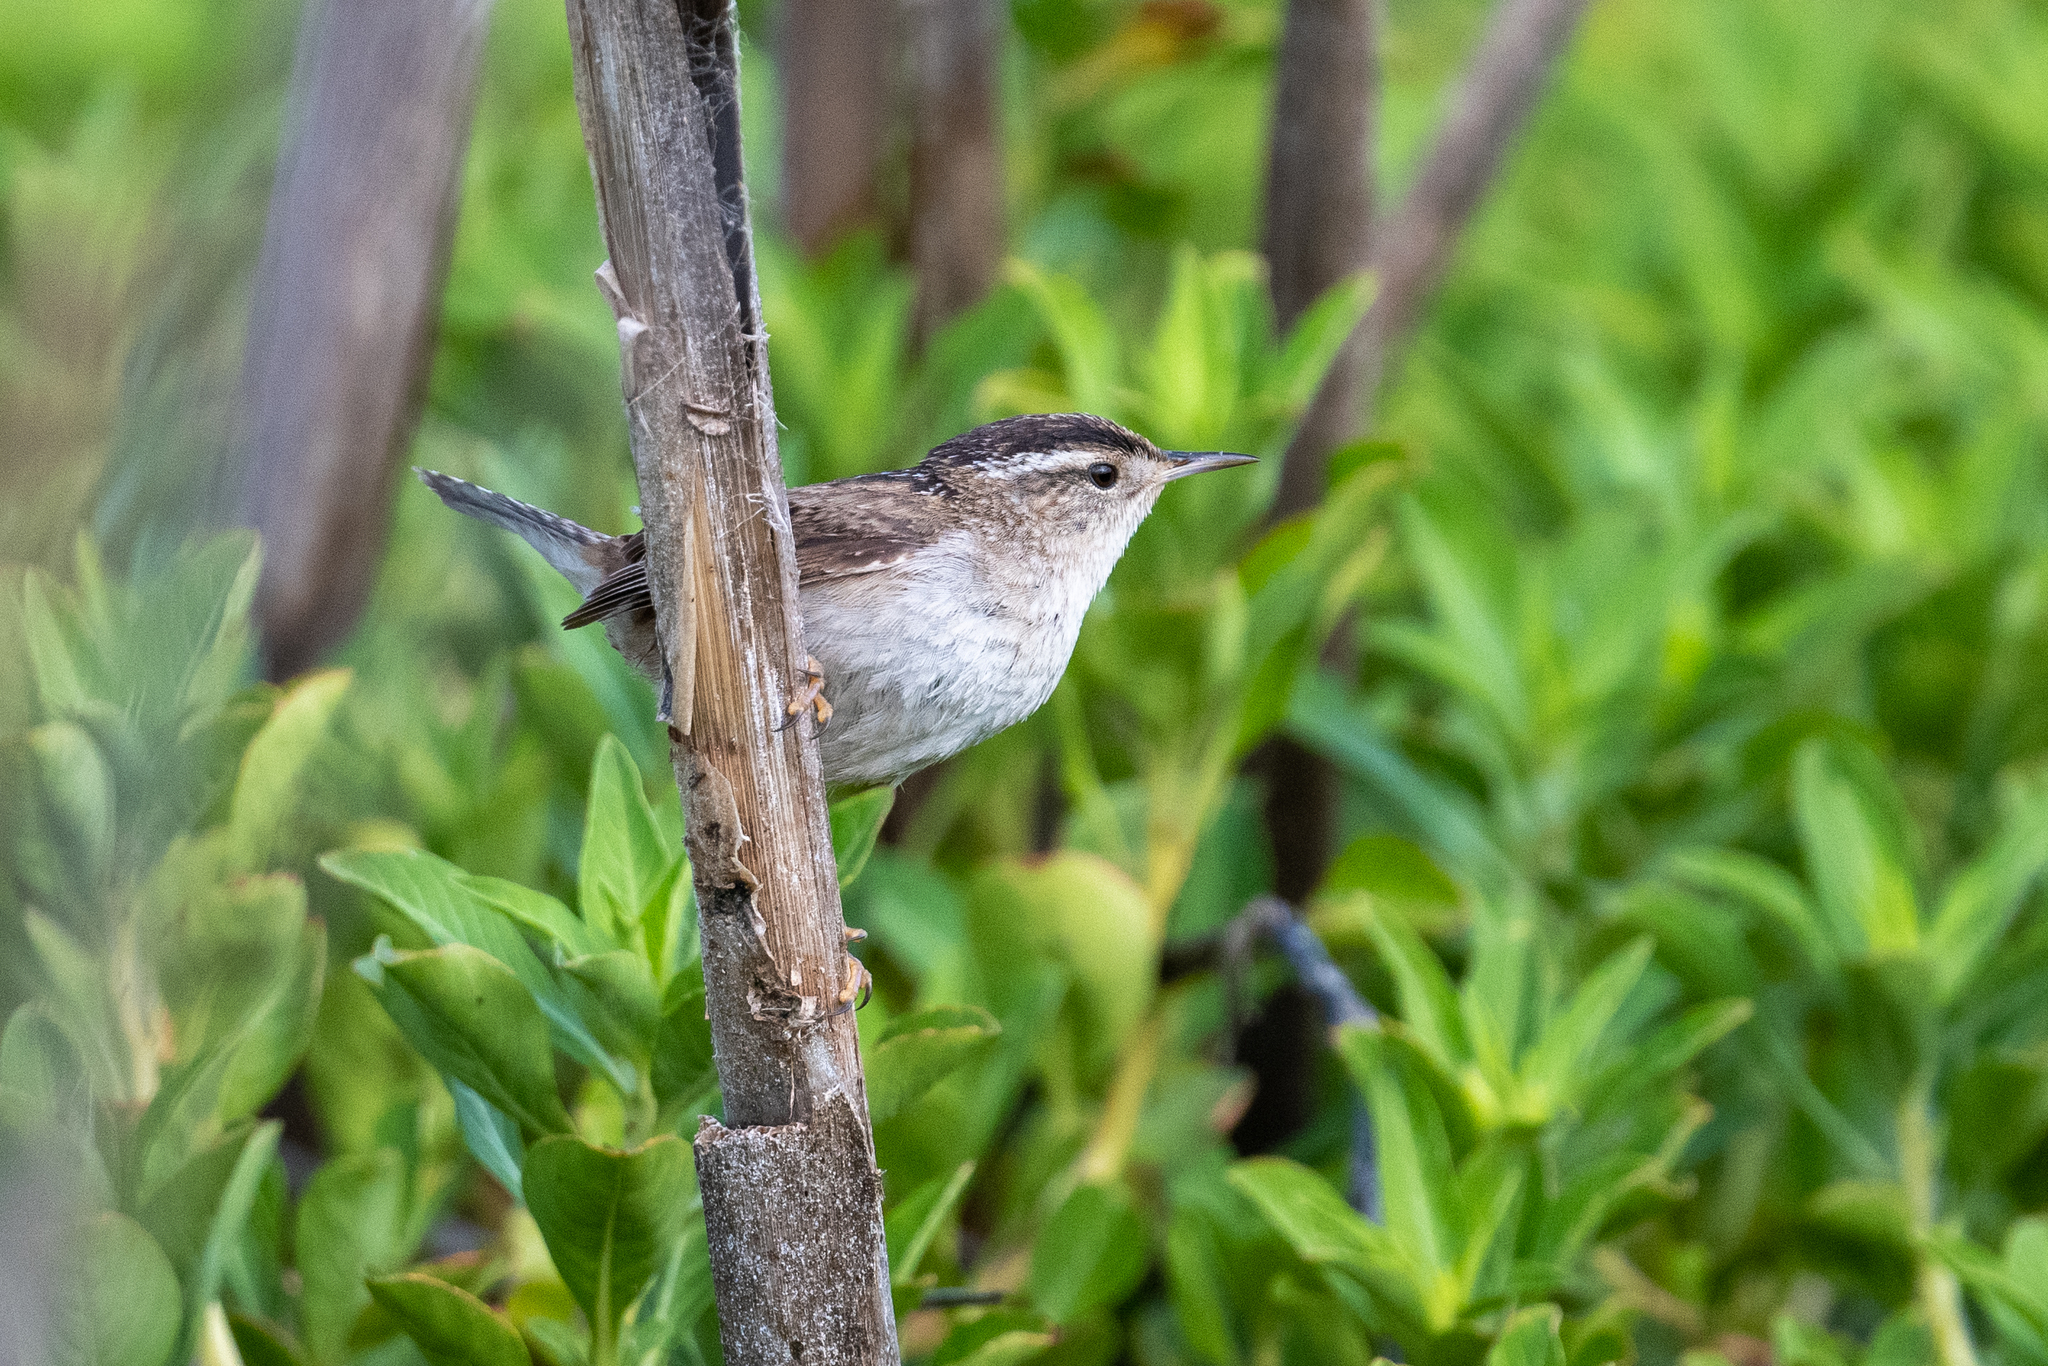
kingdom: Animalia
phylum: Chordata
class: Aves
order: Passeriformes
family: Troglodytidae
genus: Cistothorus
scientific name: Cistothorus palustris
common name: Marsh wren
